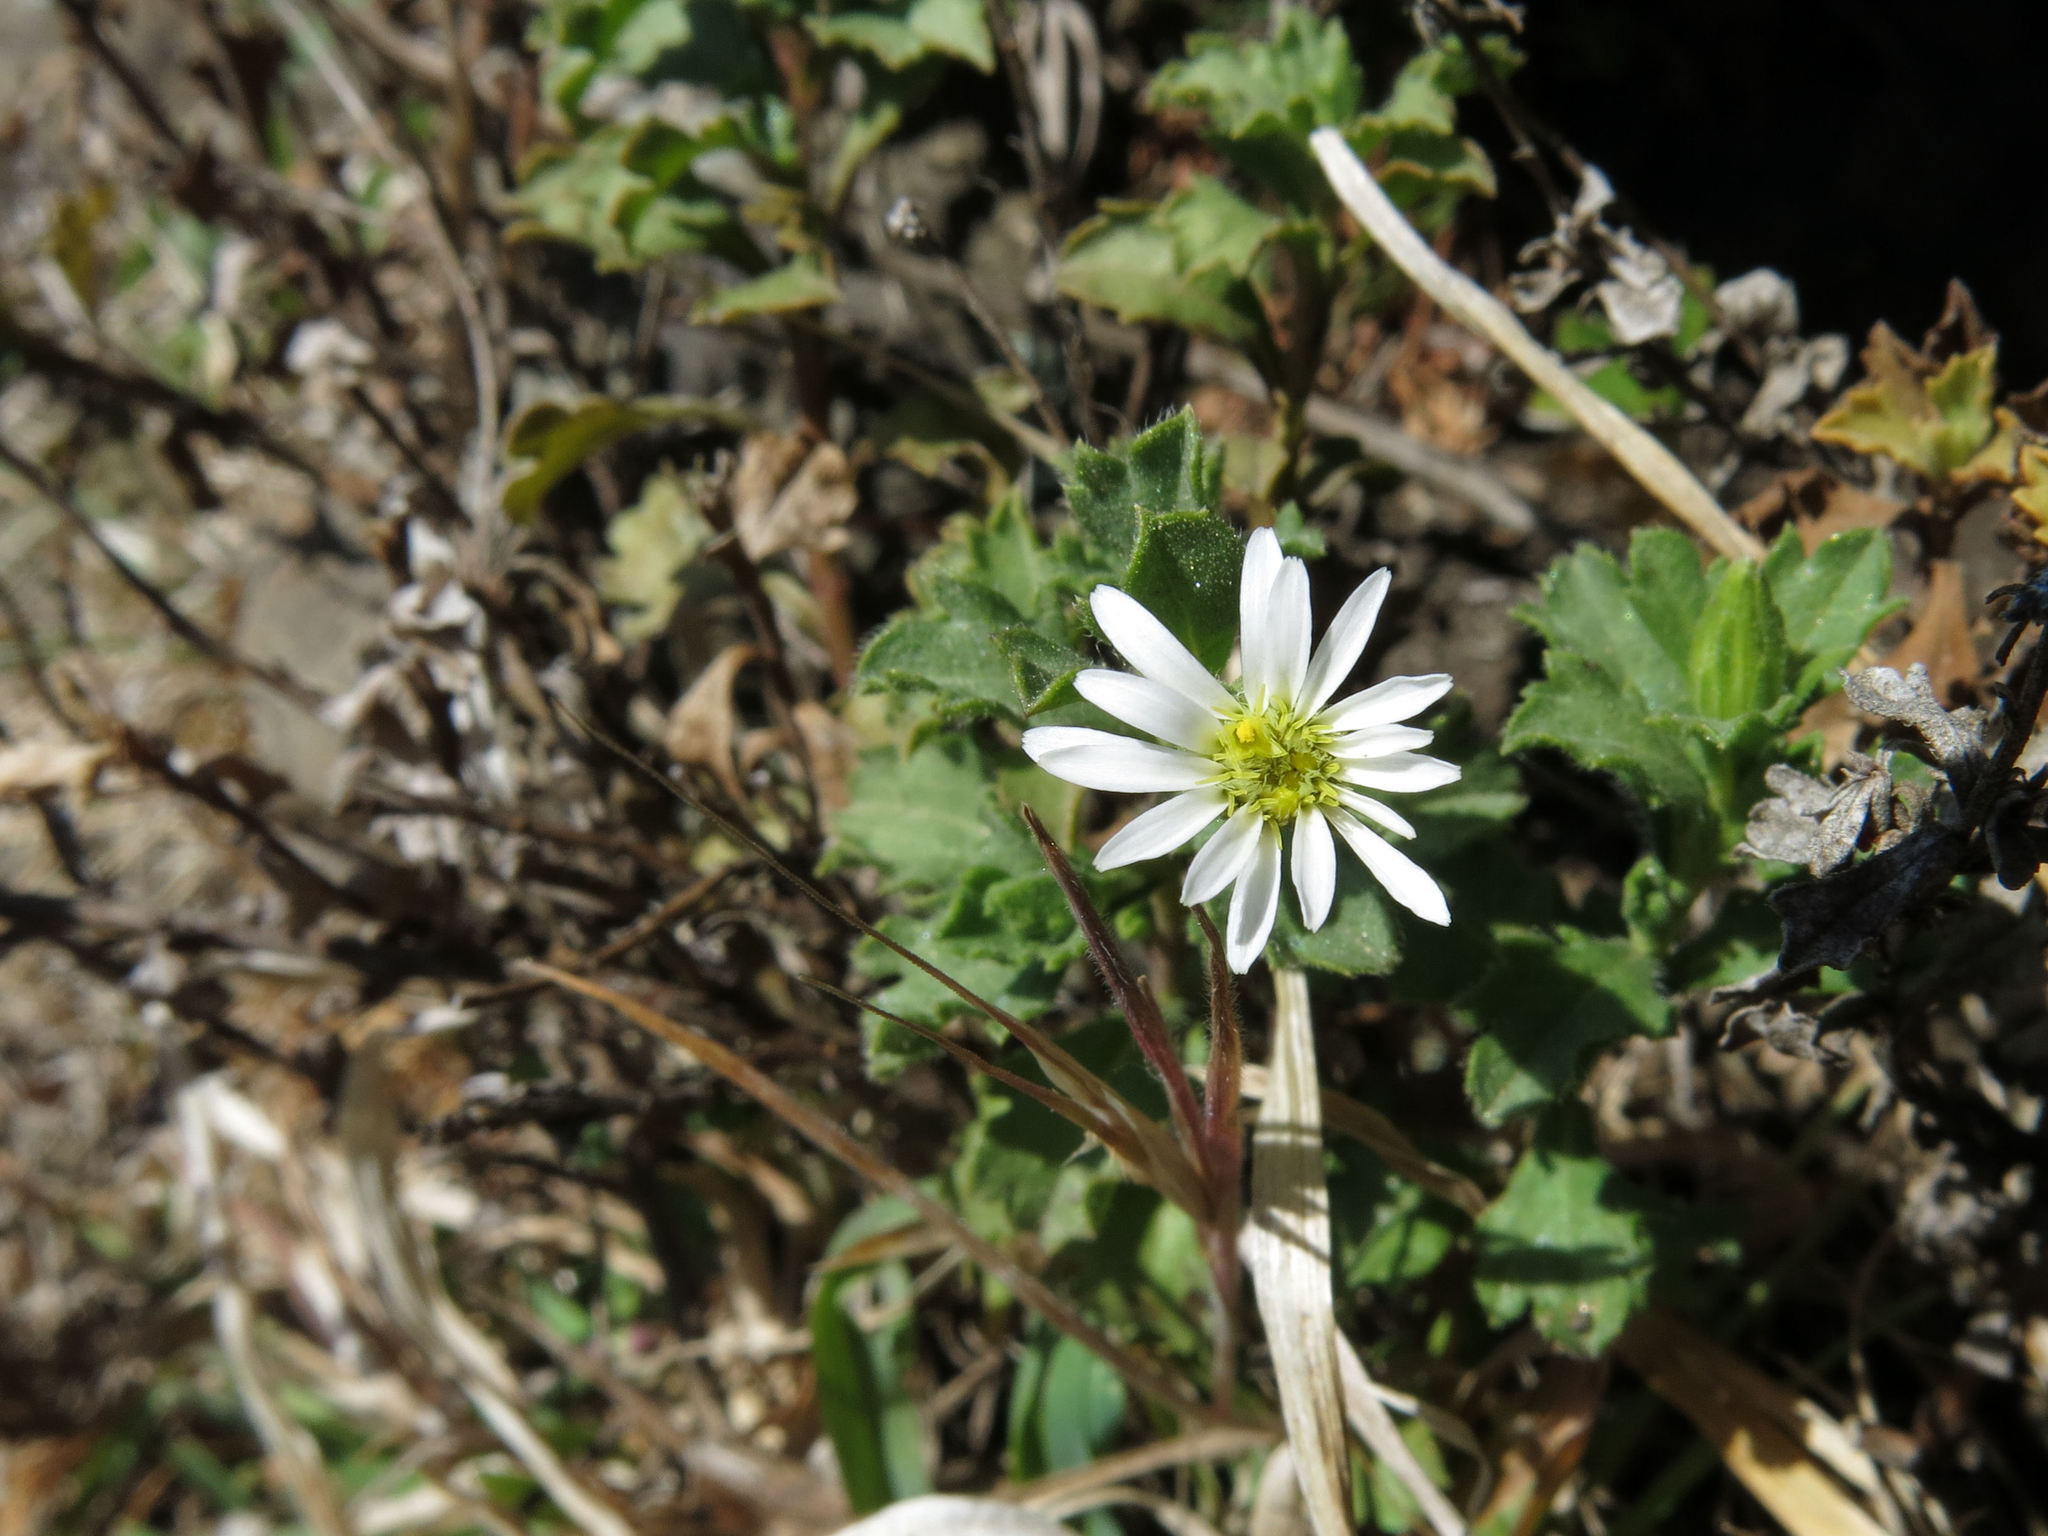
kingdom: Plantae
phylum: Tracheophyta
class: Magnoliopsida
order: Asterales
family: Asteraceae
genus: Vittadinia
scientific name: Vittadinia australis
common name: White fuzzweed
